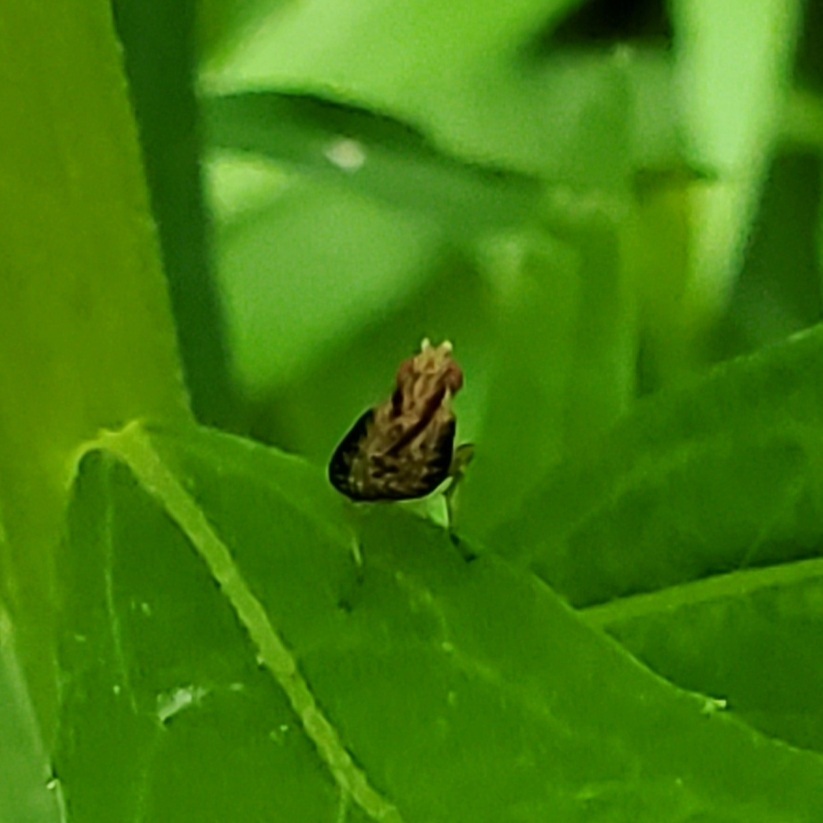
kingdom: Animalia
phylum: Arthropoda
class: Insecta
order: Diptera
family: Sciomyzidae
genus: Trypetoptera
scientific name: Trypetoptera canadensis
